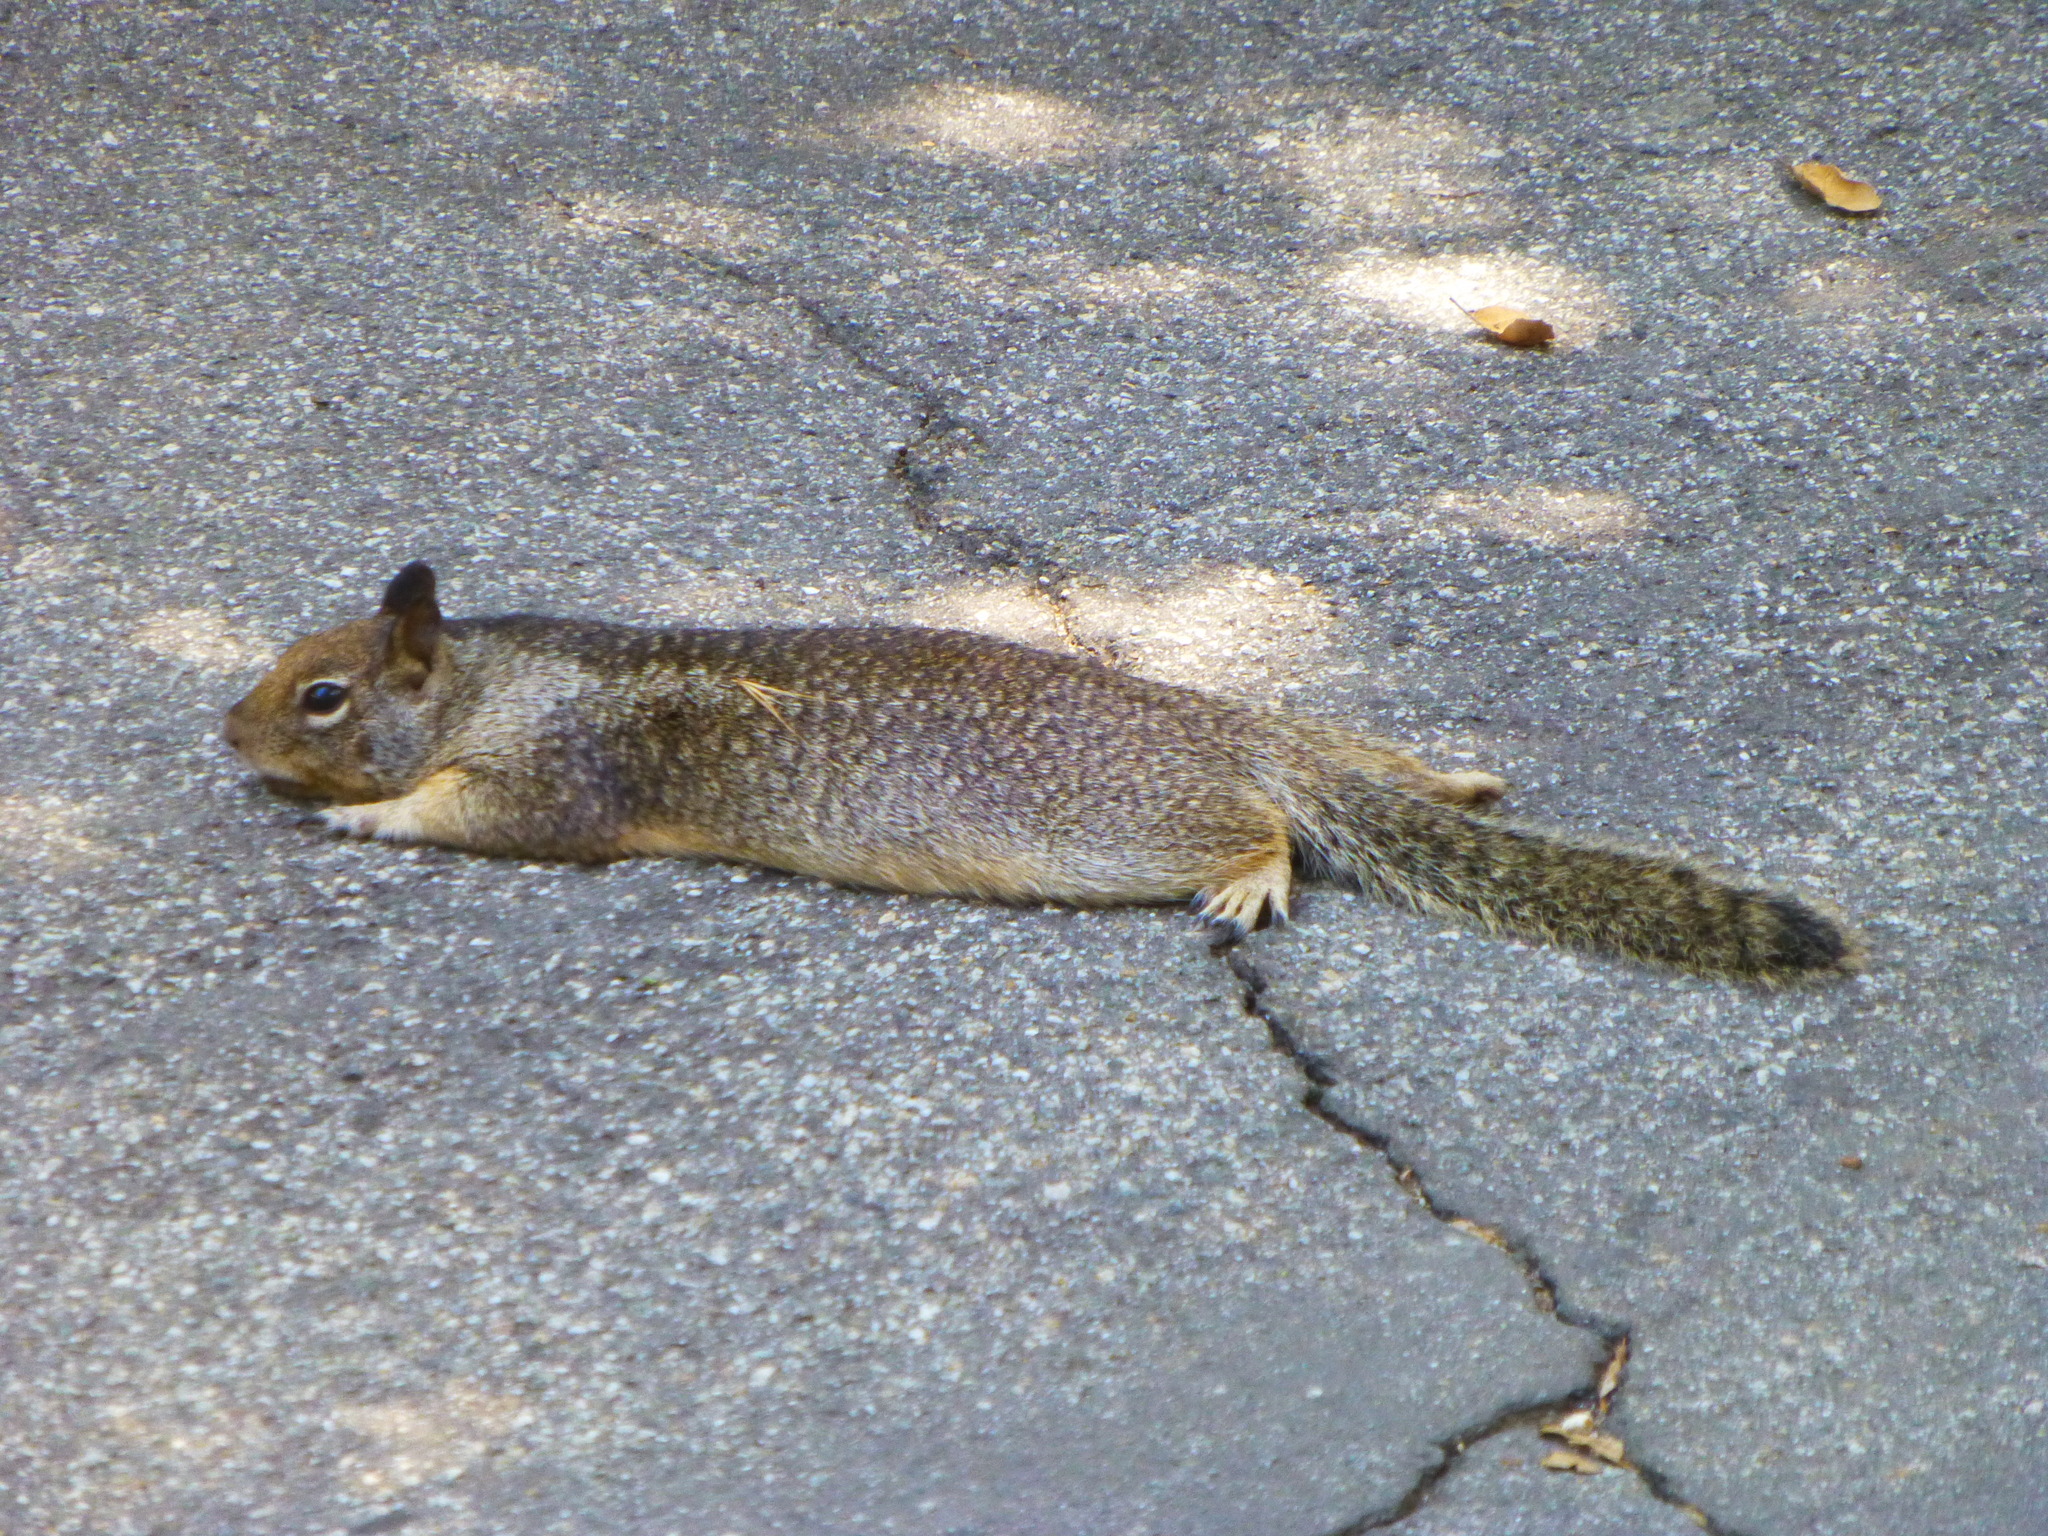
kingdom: Animalia
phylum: Chordata
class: Mammalia
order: Rodentia
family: Sciuridae
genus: Otospermophilus
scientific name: Otospermophilus beecheyi
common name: California ground squirrel
